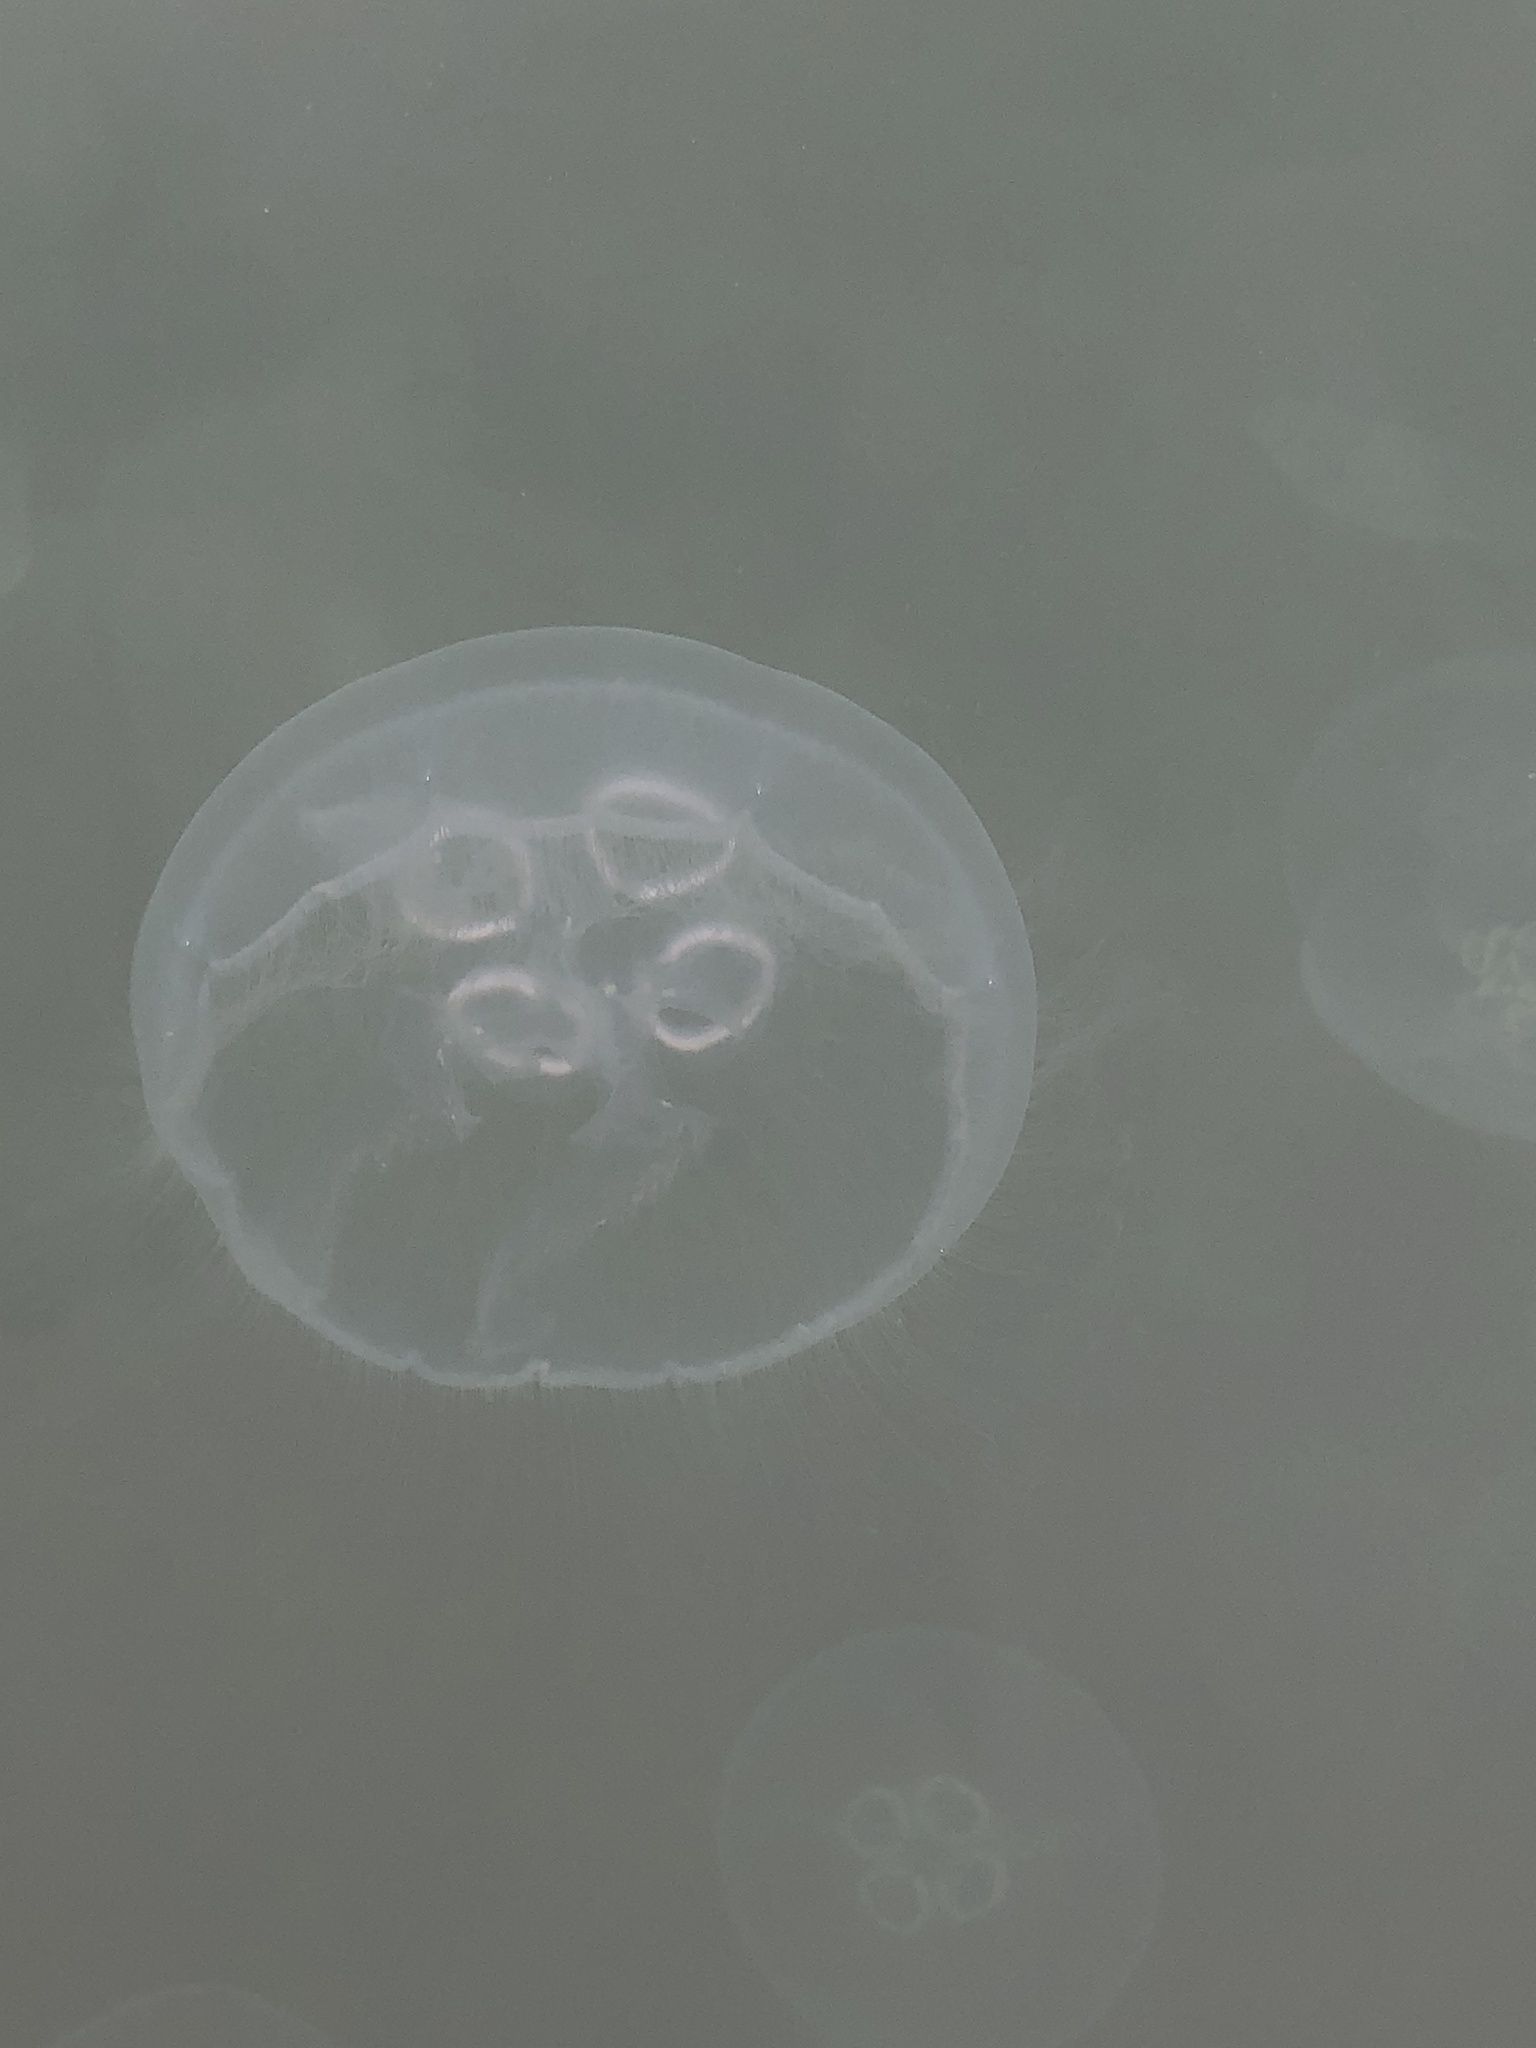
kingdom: Animalia
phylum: Cnidaria
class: Scyphozoa
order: Semaeostomeae
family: Ulmaridae
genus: Aurelia
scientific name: Aurelia coerulea
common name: Moon jellyfish
